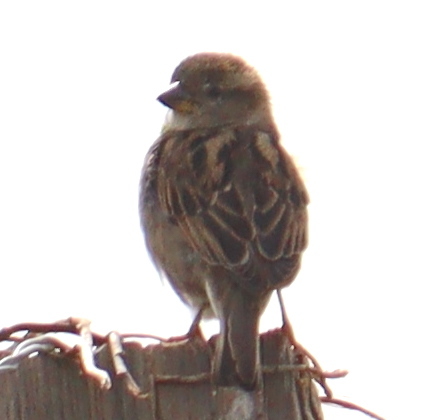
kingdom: Animalia
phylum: Chordata
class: Aves
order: Passeriformes
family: Passeridae
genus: Passer
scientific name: Passer domesticus
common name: House sparrow
